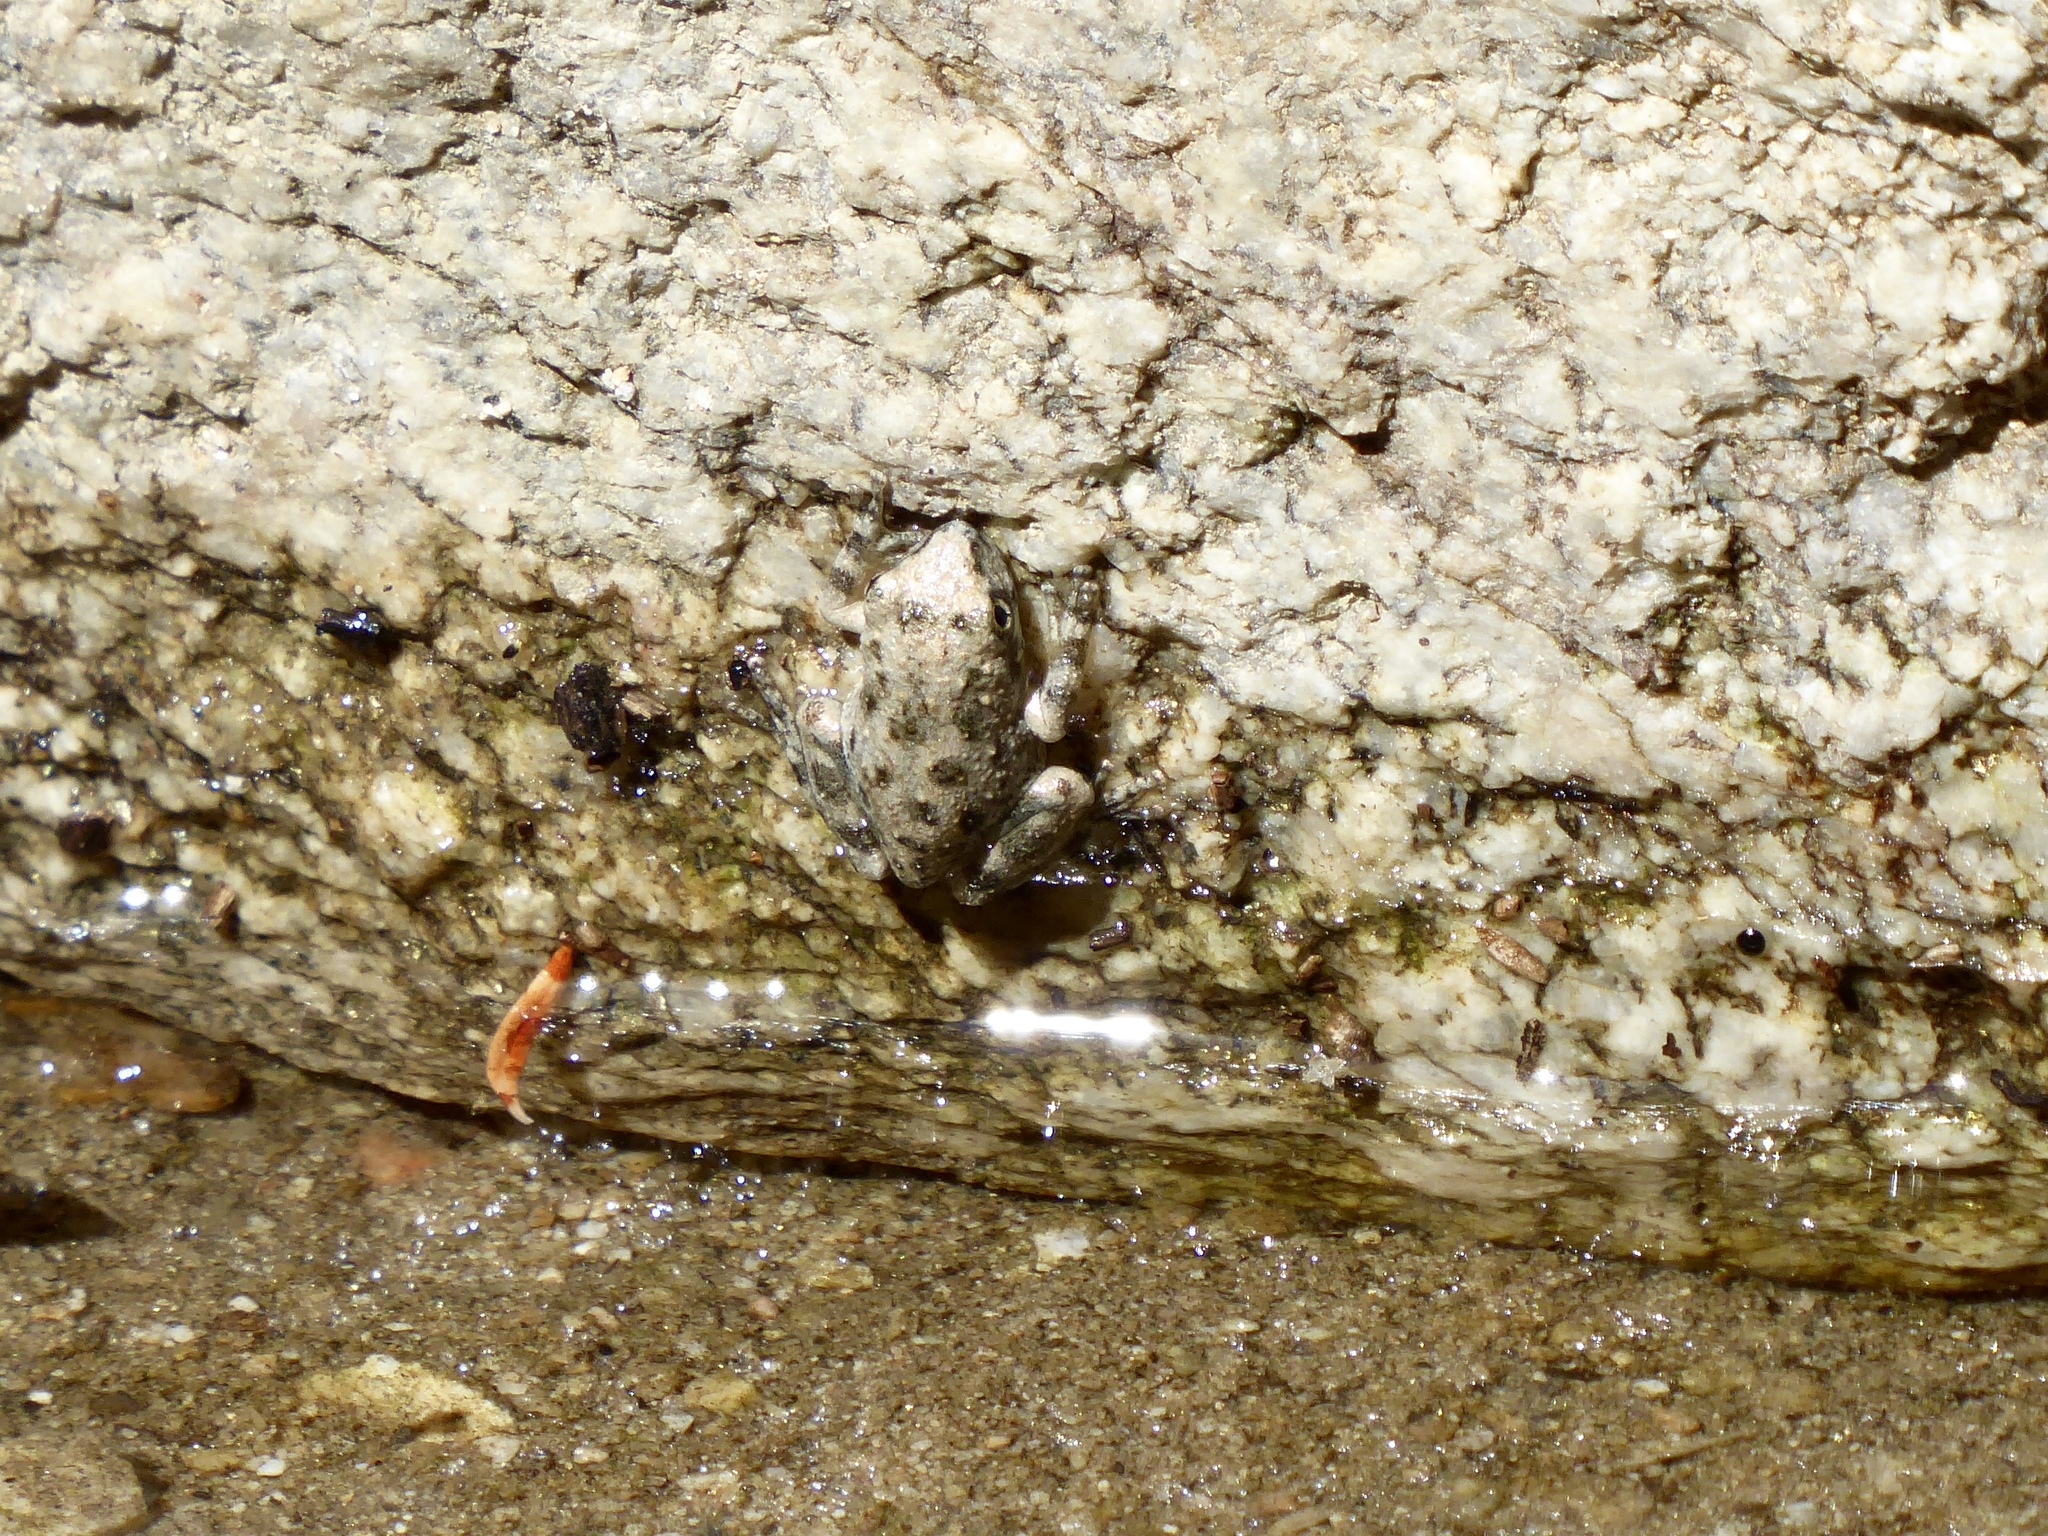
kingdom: Animalia
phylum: Chordata
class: Amphibia
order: Anura
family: Hylidae
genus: Pseudacris
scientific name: Pseudacris cadaverina
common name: California chorus frog
